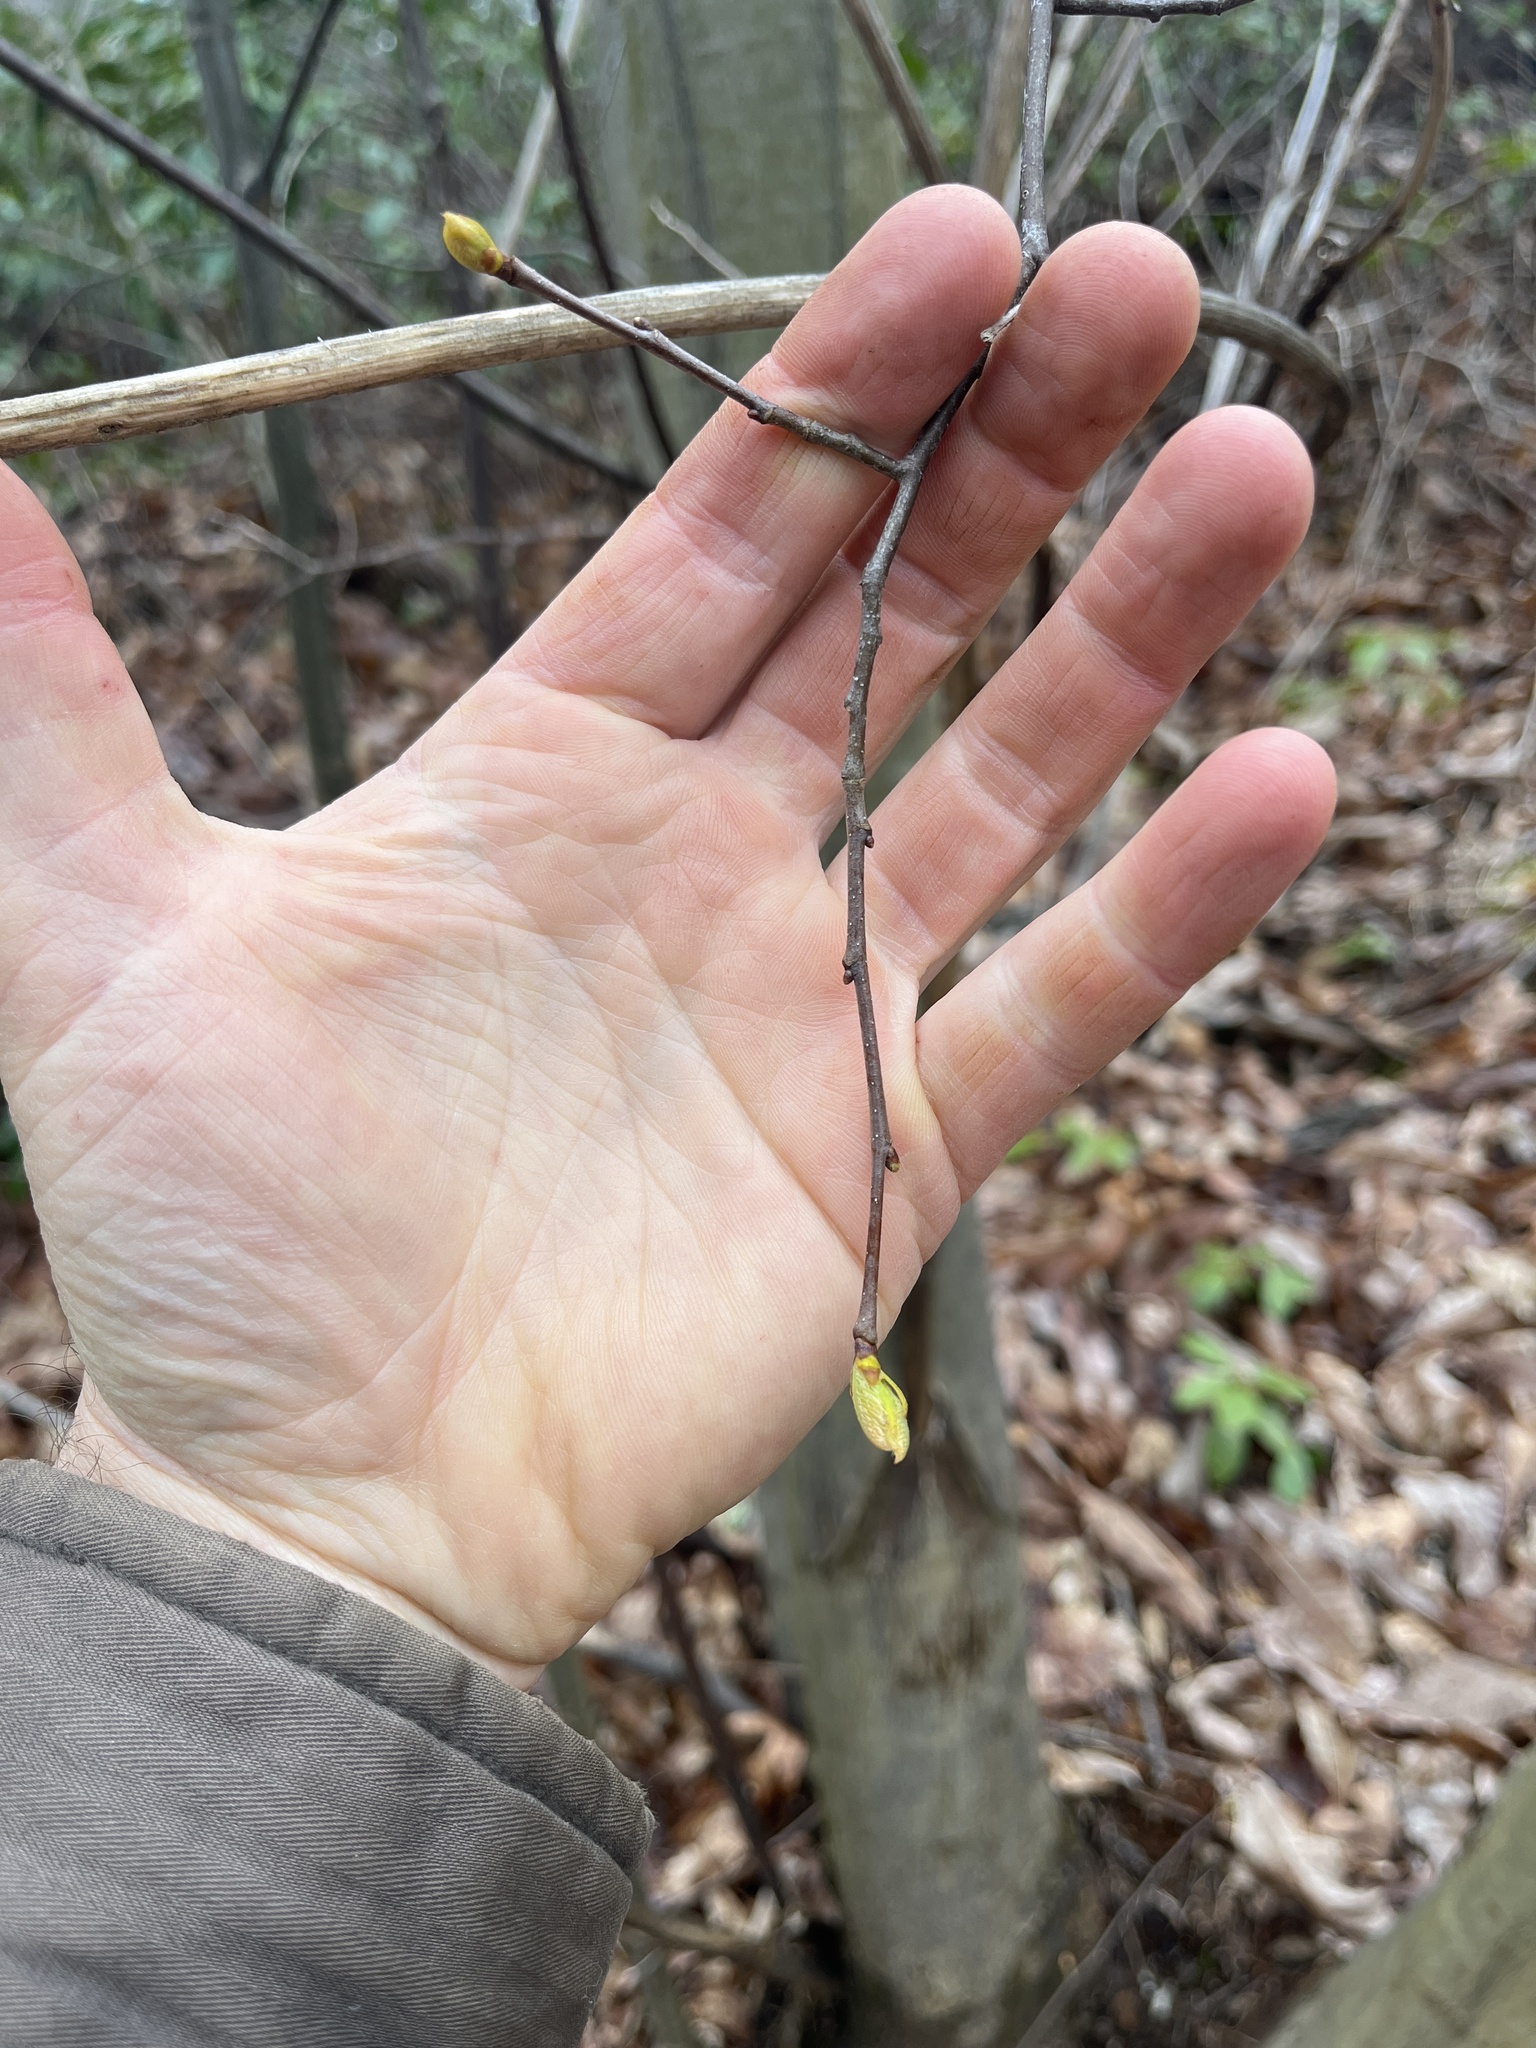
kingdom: Plantae
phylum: Tracheophyta
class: Magnoliopsida
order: Fagales
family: Fagaceae
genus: Castanea
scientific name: Castanea dentata
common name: American chestnut
